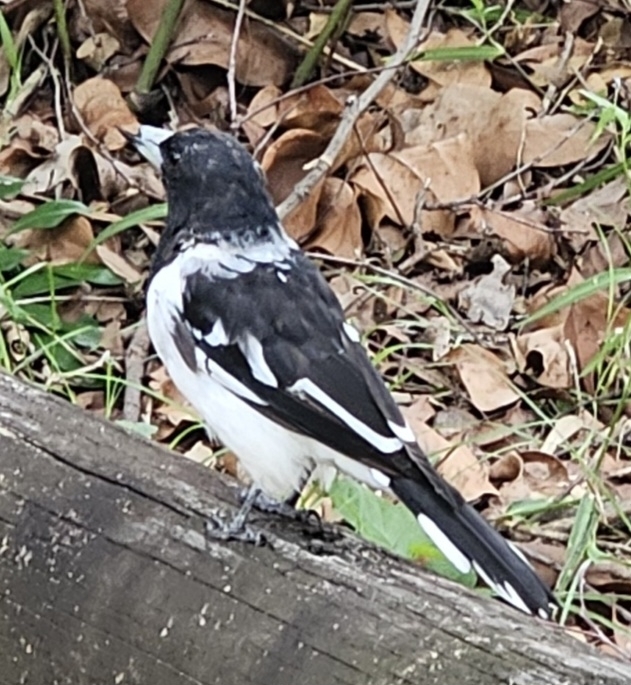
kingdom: Animalia
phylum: Chordata
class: Aves
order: Passeriformes
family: Cracticidae
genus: Cracticus
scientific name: Cracticus nigrogularis
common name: Pied butcherbird
